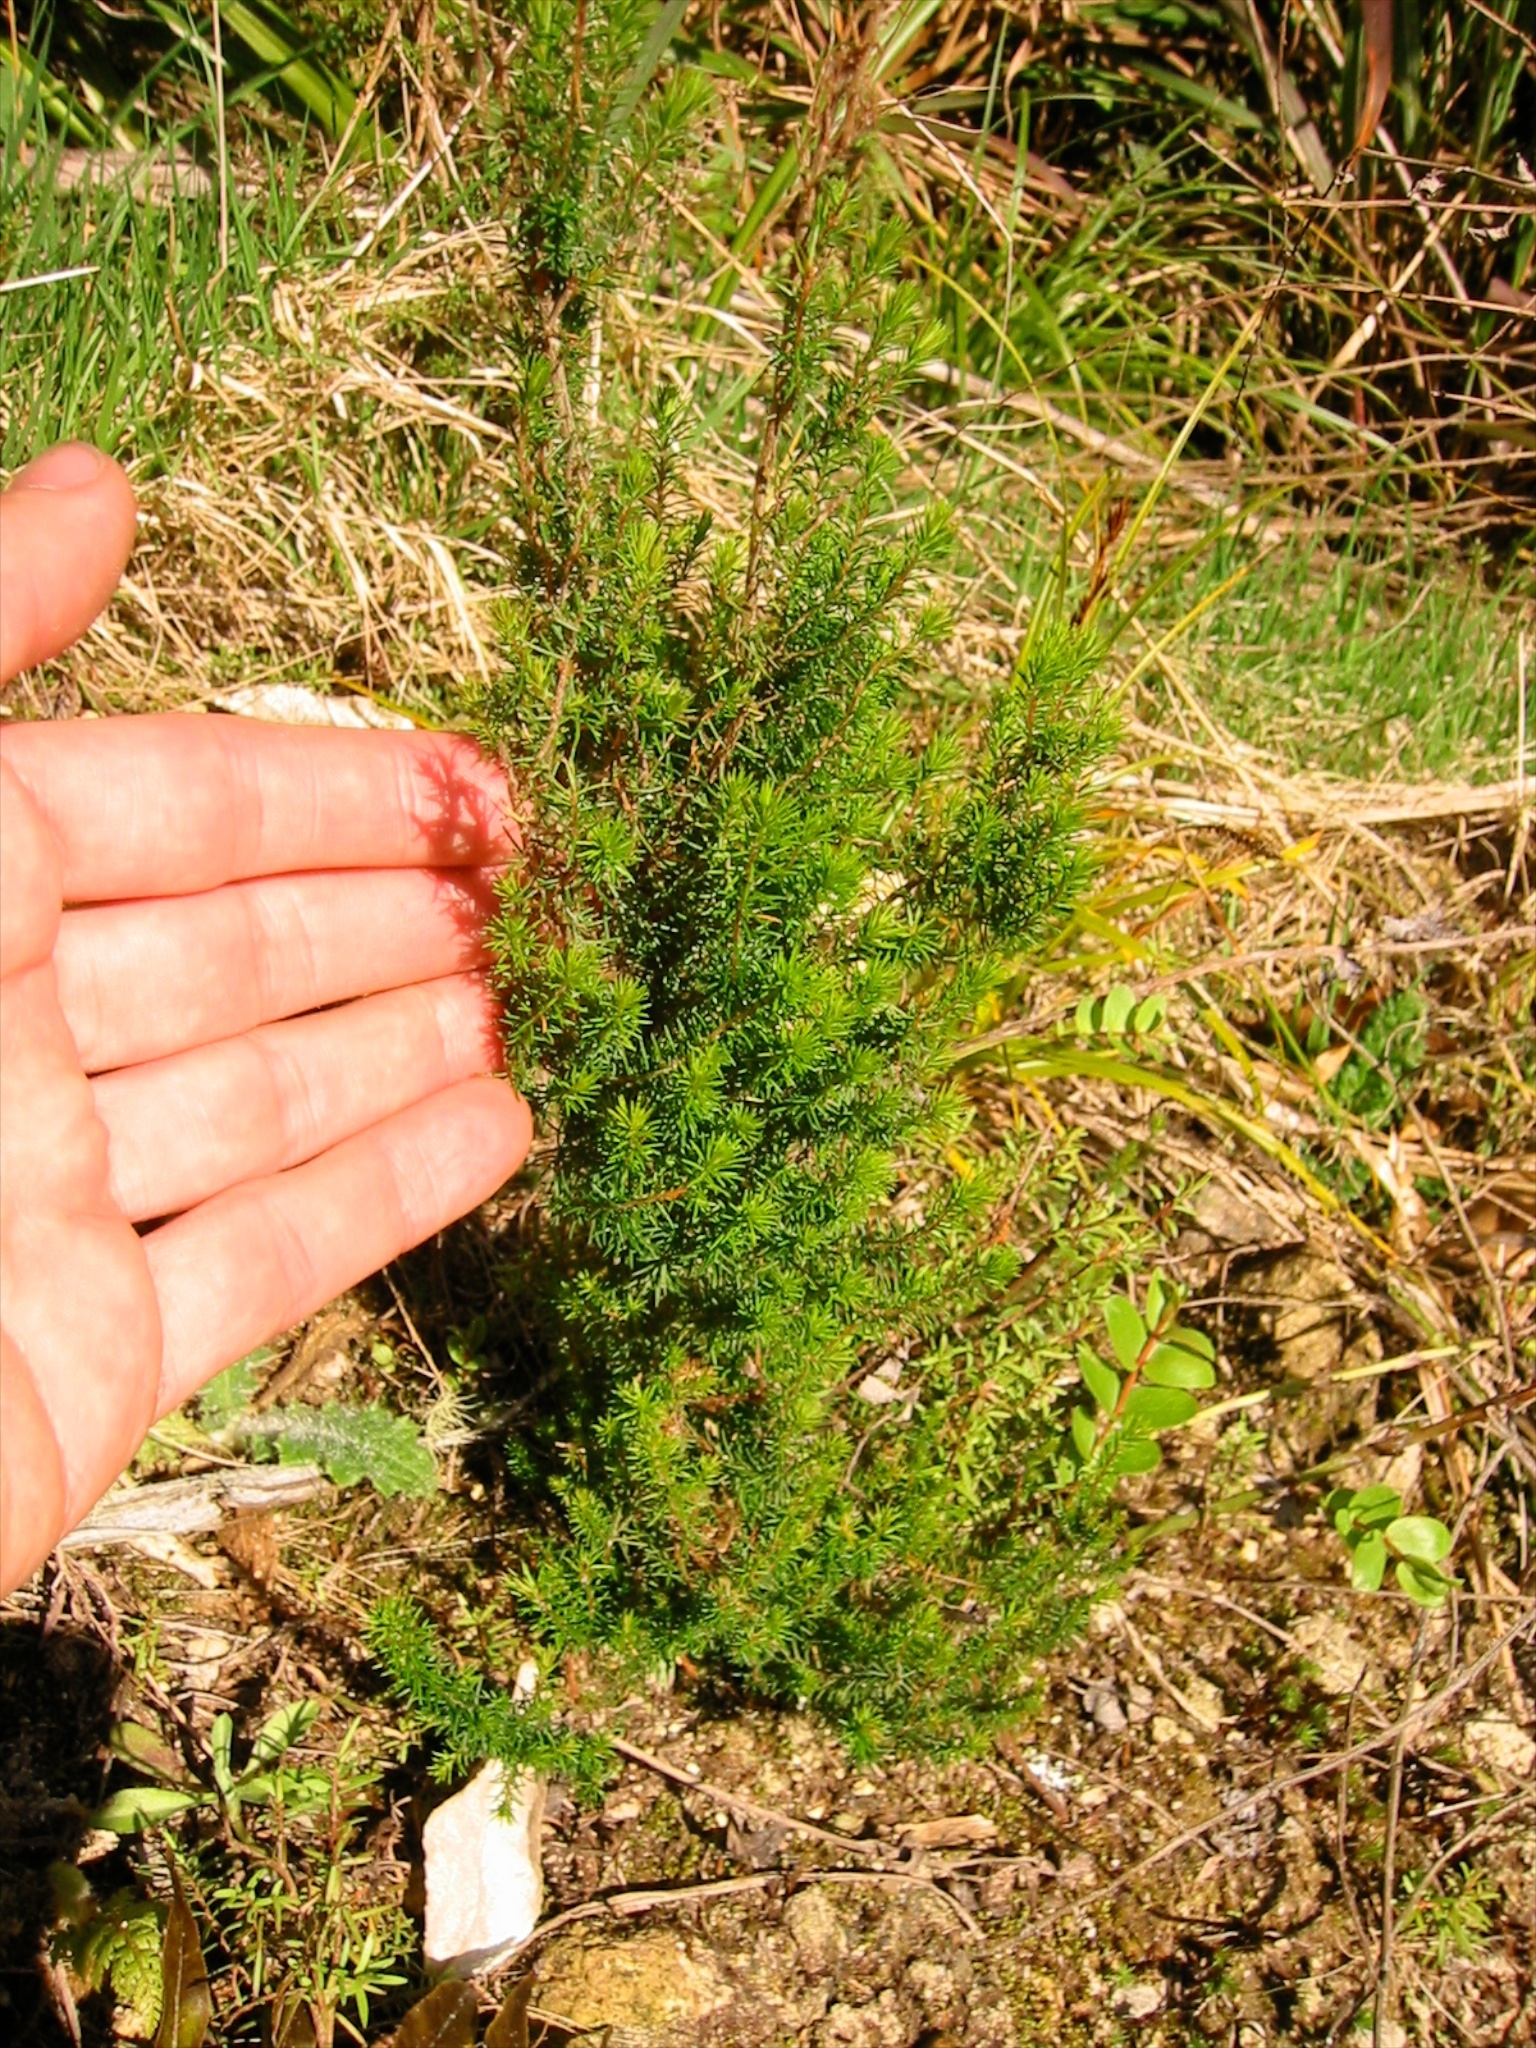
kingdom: Plantae
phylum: Tracheophyta
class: Magnoliopsida
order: Ericales
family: Ericaceae
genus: Erica
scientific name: Erica lusitanica
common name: Spanish heath
